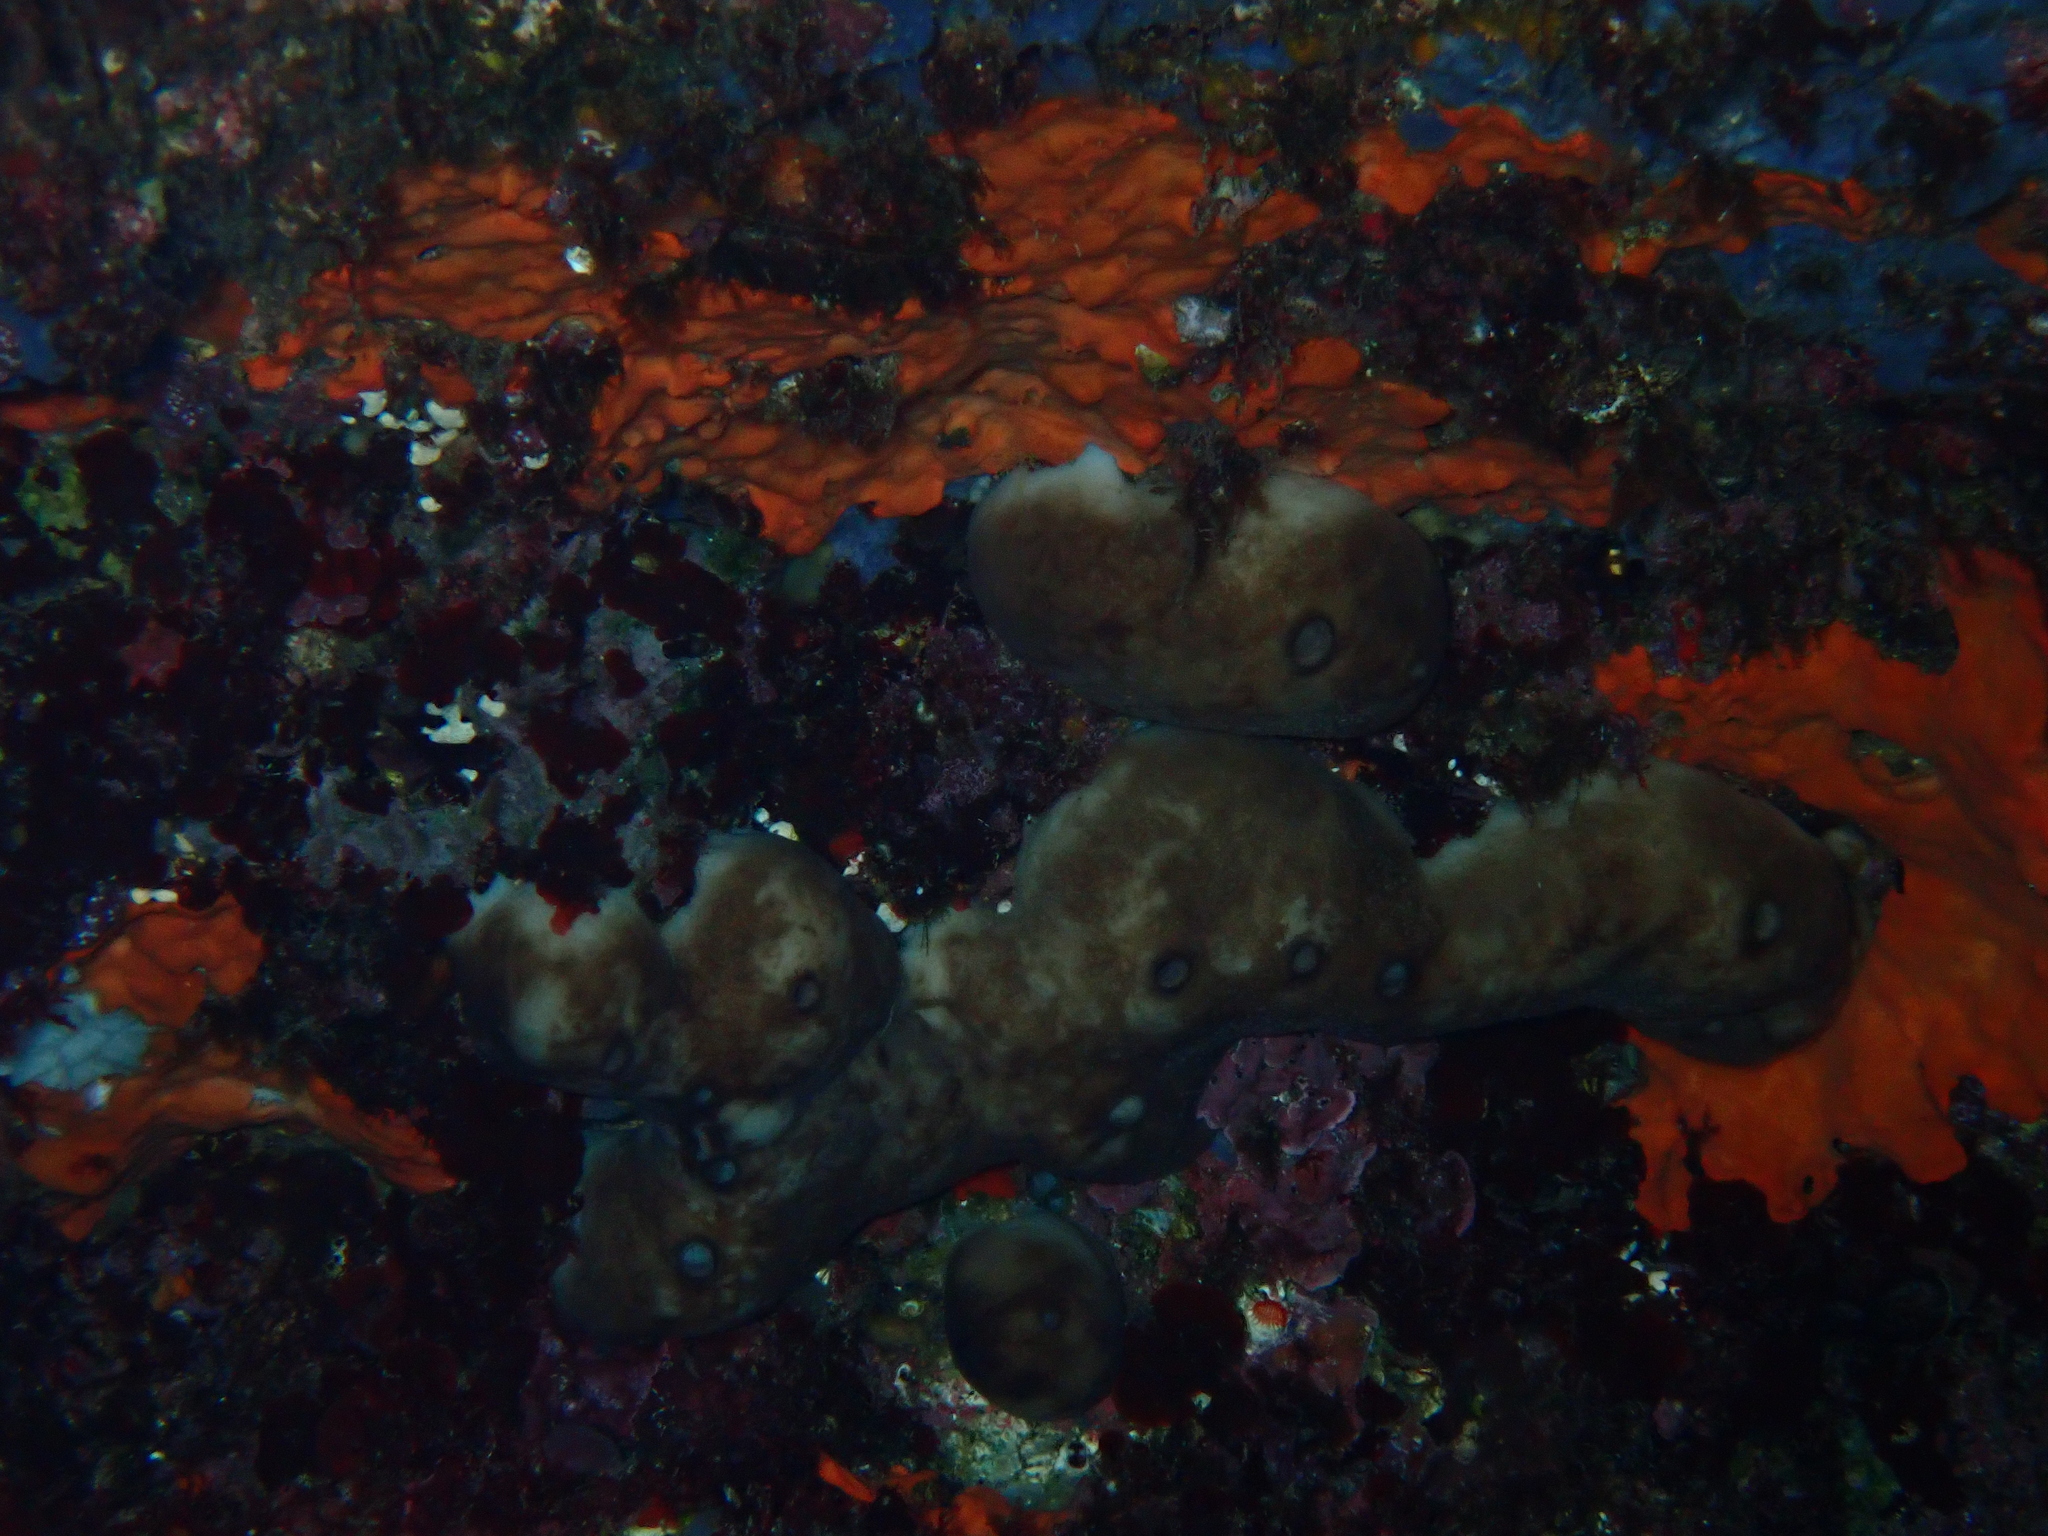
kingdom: Animalia
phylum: Porifera
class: Demospongiae
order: Chondrosiida
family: Chondrosiidae
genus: Chondrosia
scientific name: Chondrosia reniformis
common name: Chicken liver sponge
